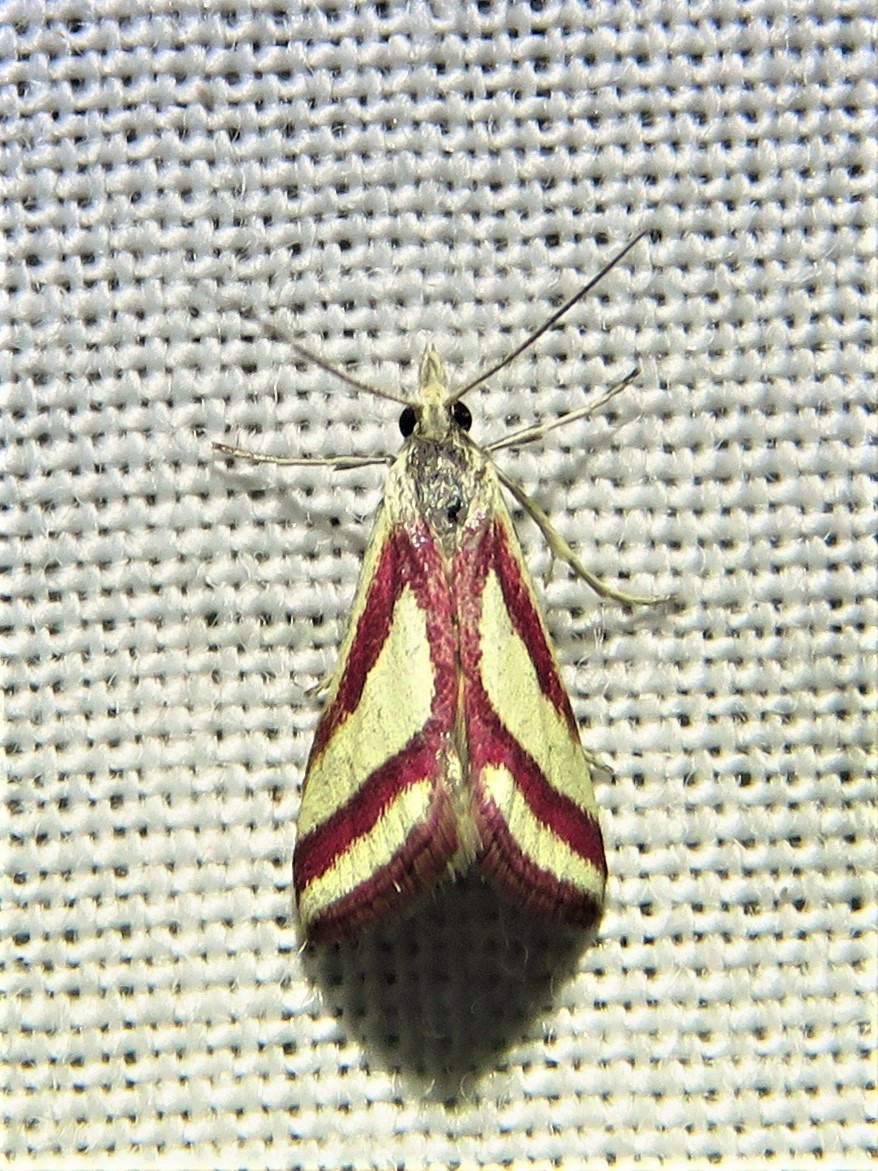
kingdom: Animalia
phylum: Arthropoda
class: Insecta
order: Lepidoptera
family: Crambidae
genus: Microtheoris
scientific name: Microtheoris vibicalis
